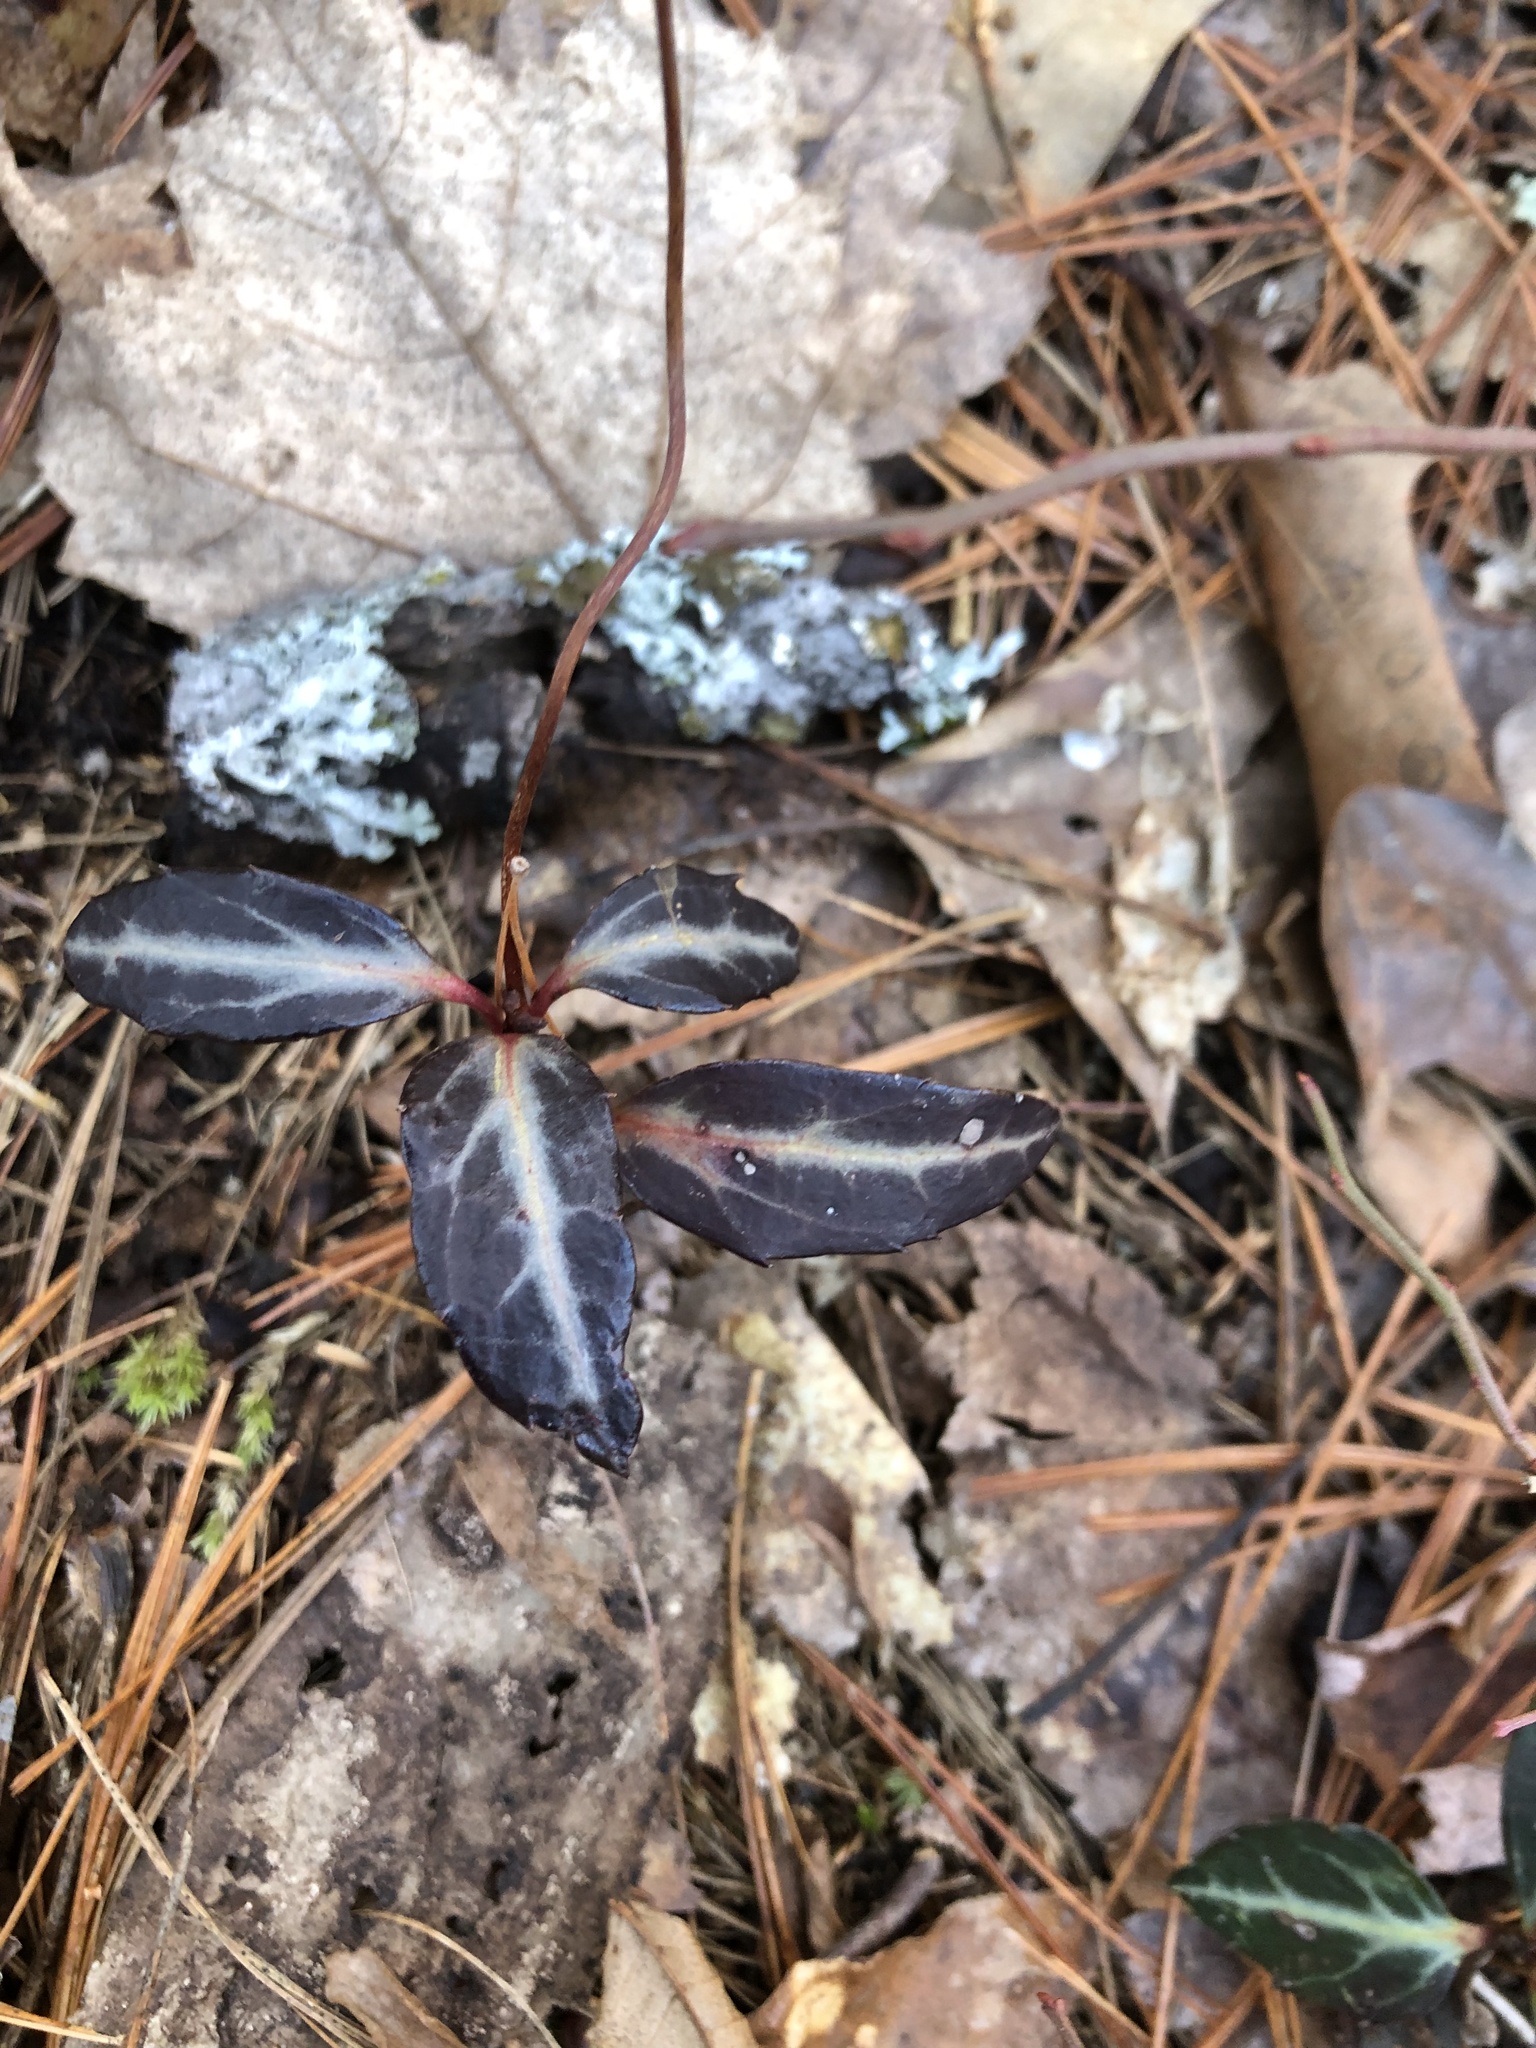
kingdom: Plantae
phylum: Tracheophyta
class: Magnoliopsida
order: Ericales
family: Ericaceae
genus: Chimaphila
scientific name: Chimaphila maculata
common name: Spotted pipsissewa
